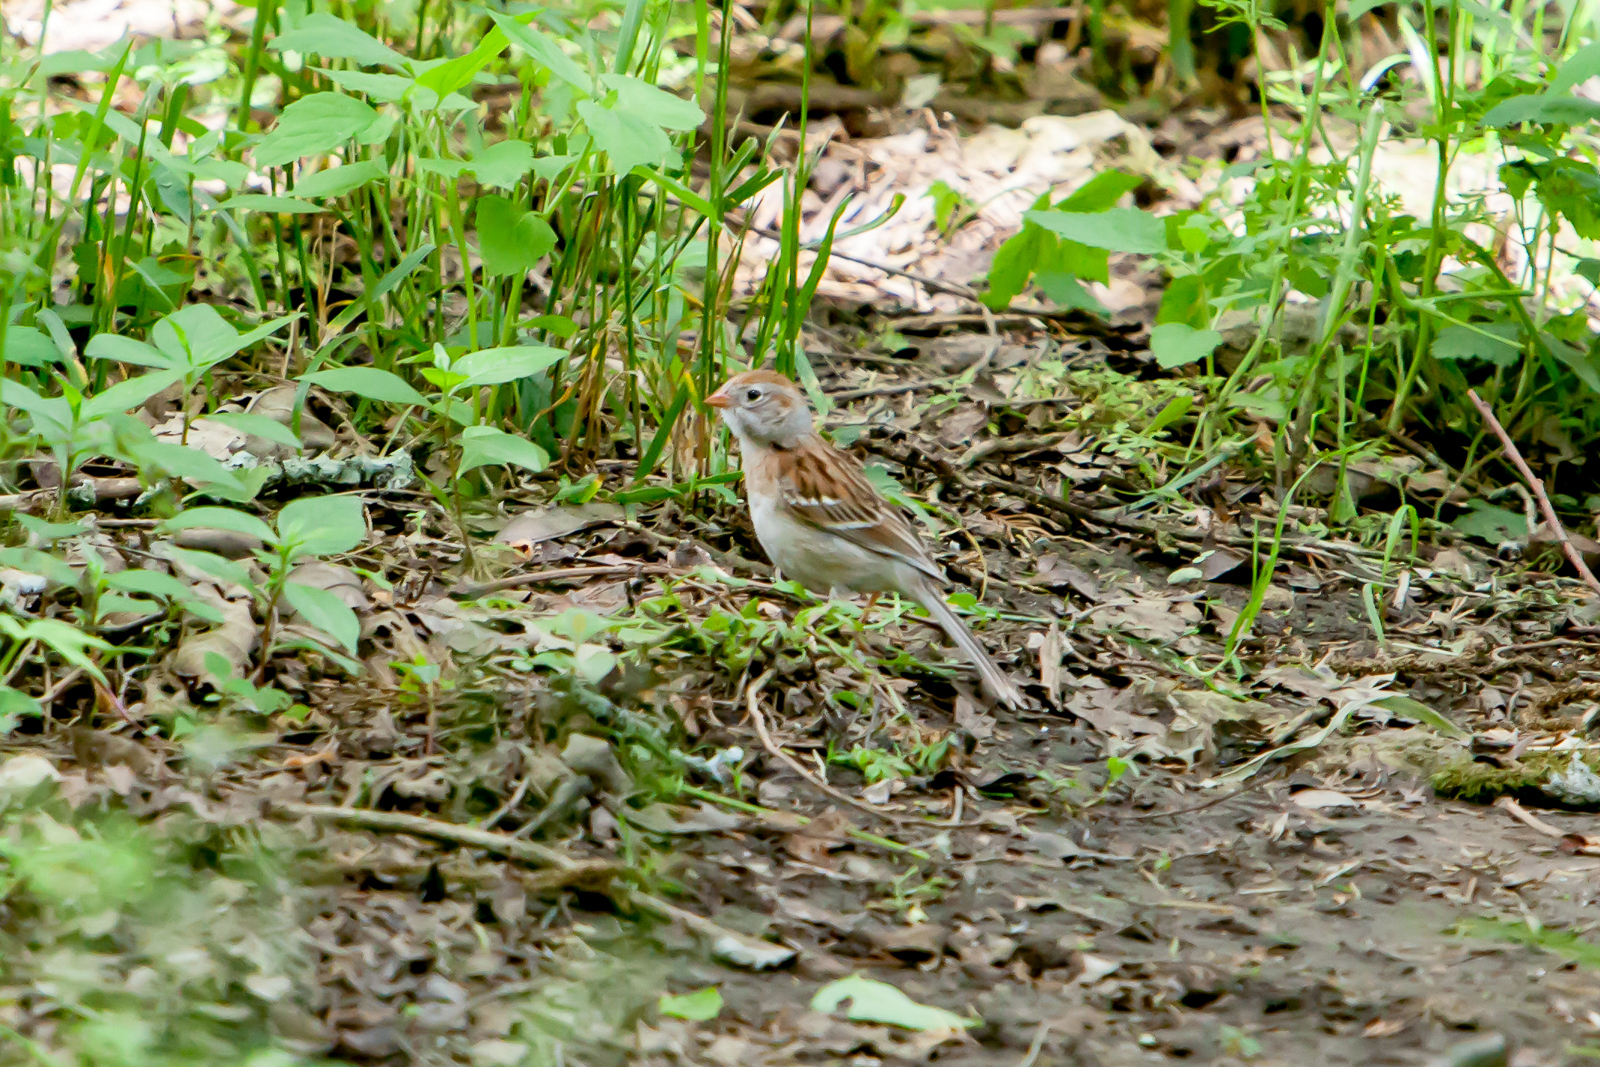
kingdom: Animalia
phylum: Chordata
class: Aves
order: Passeriformes
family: Passerellidae
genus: Spizella
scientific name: Spizella pusilla
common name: Field sparrow
